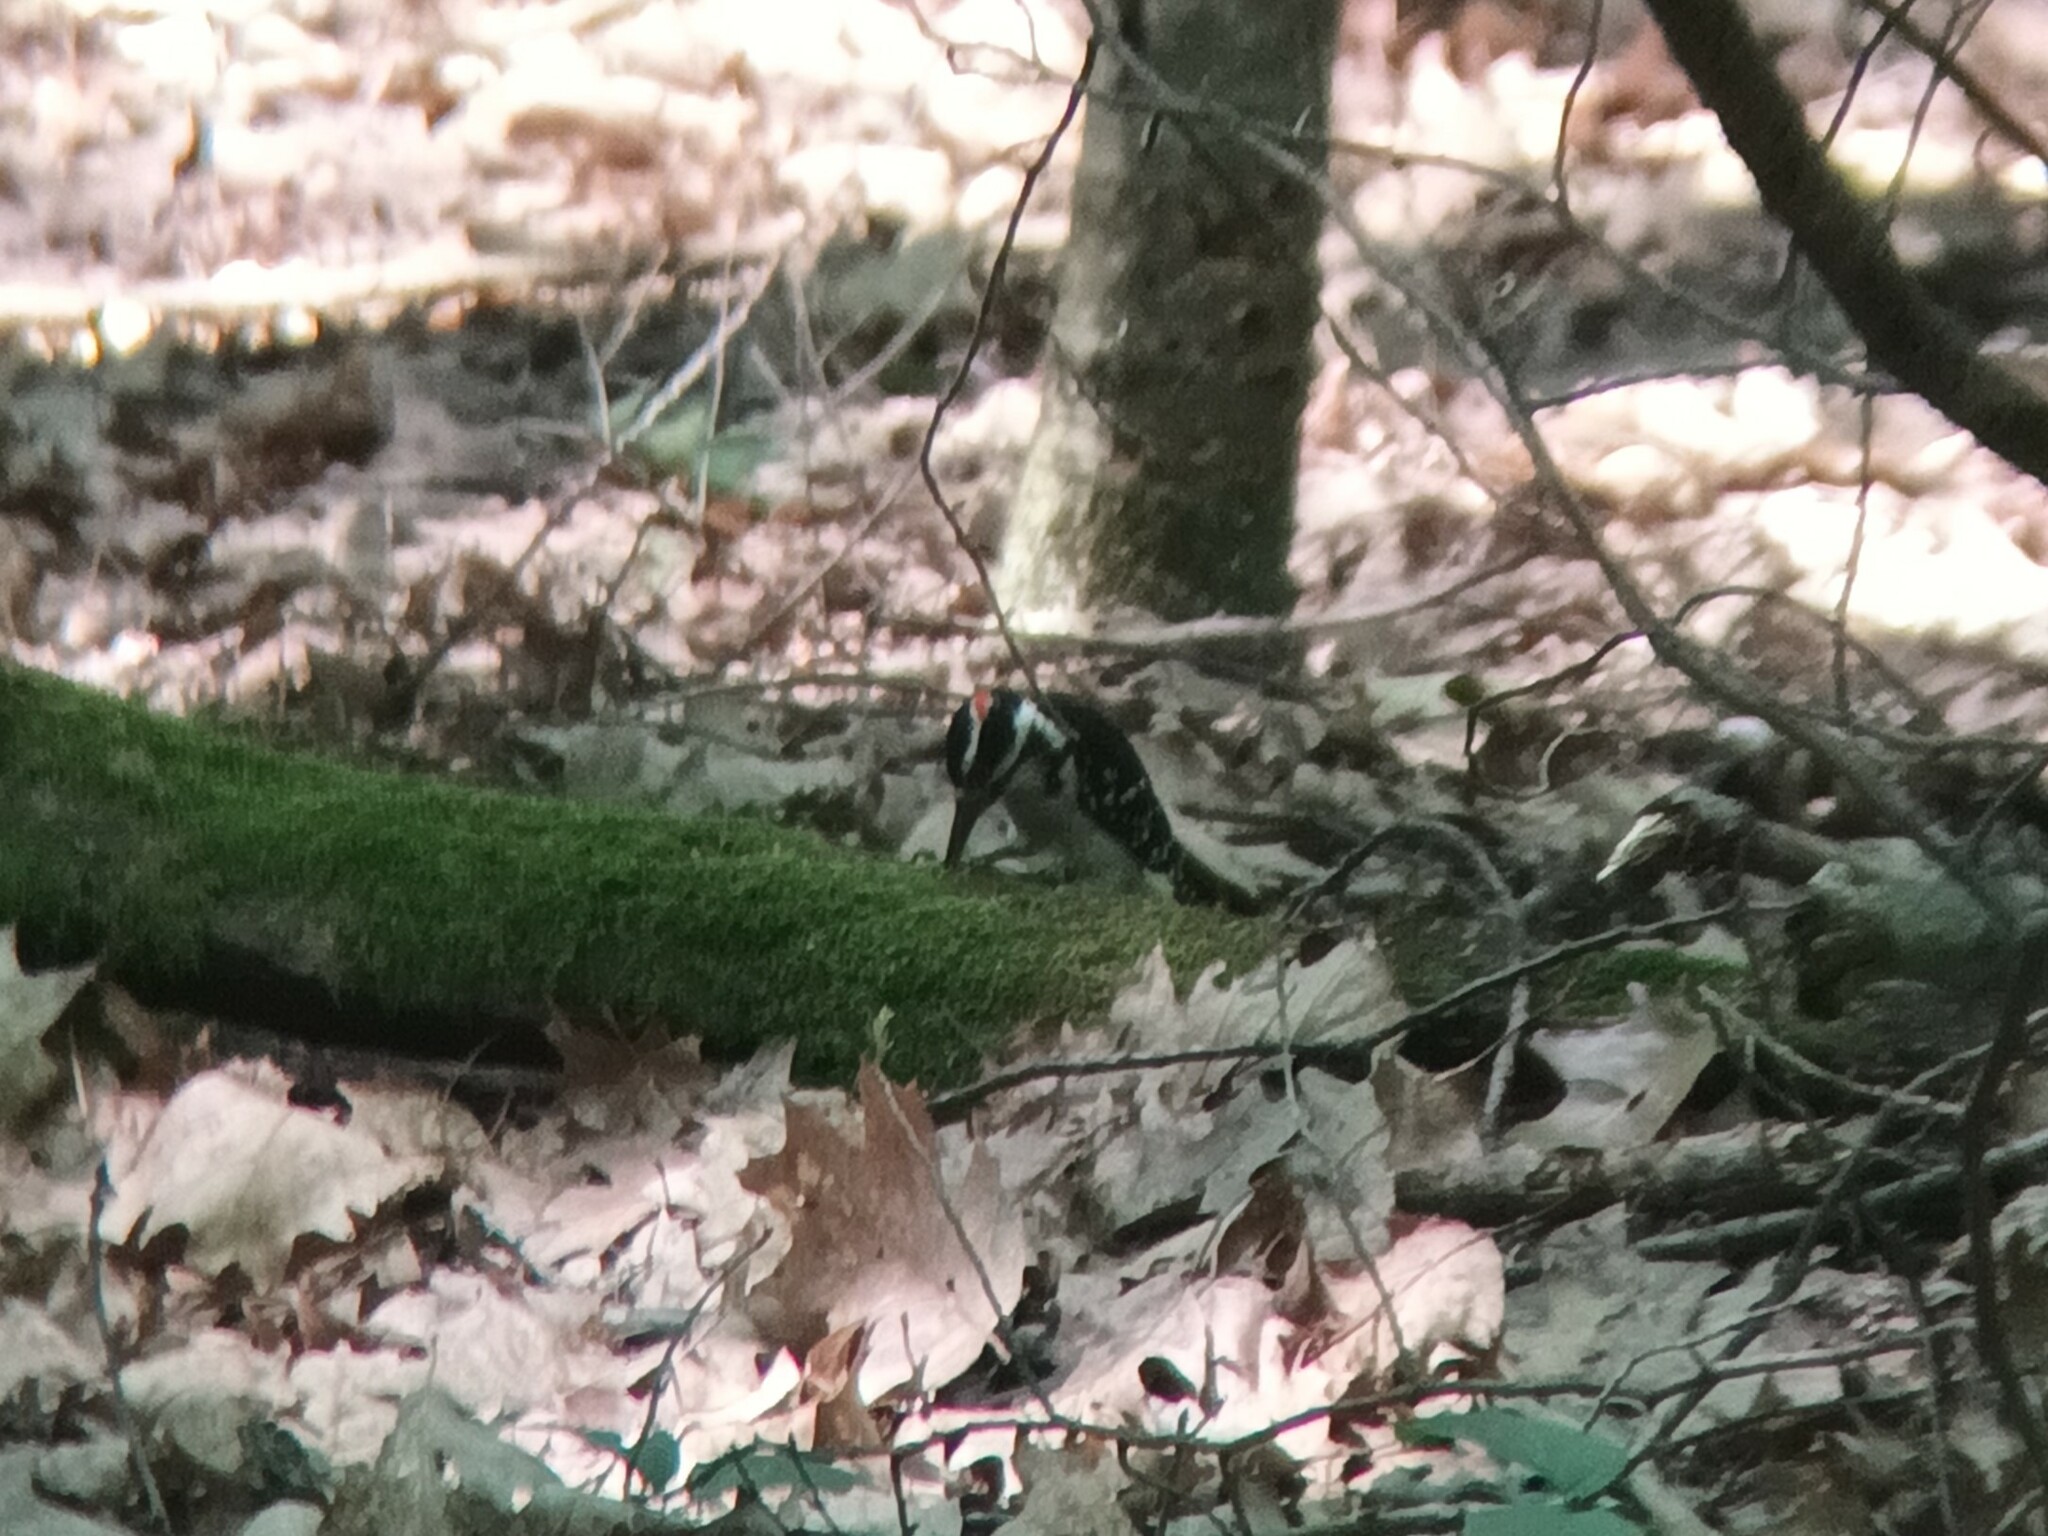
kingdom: Animalia
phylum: Chordata
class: Aves
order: Piciformes
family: Picidae
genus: Leuconotopicus
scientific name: Leuconotopicus villosus
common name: Hairy woodpecker
